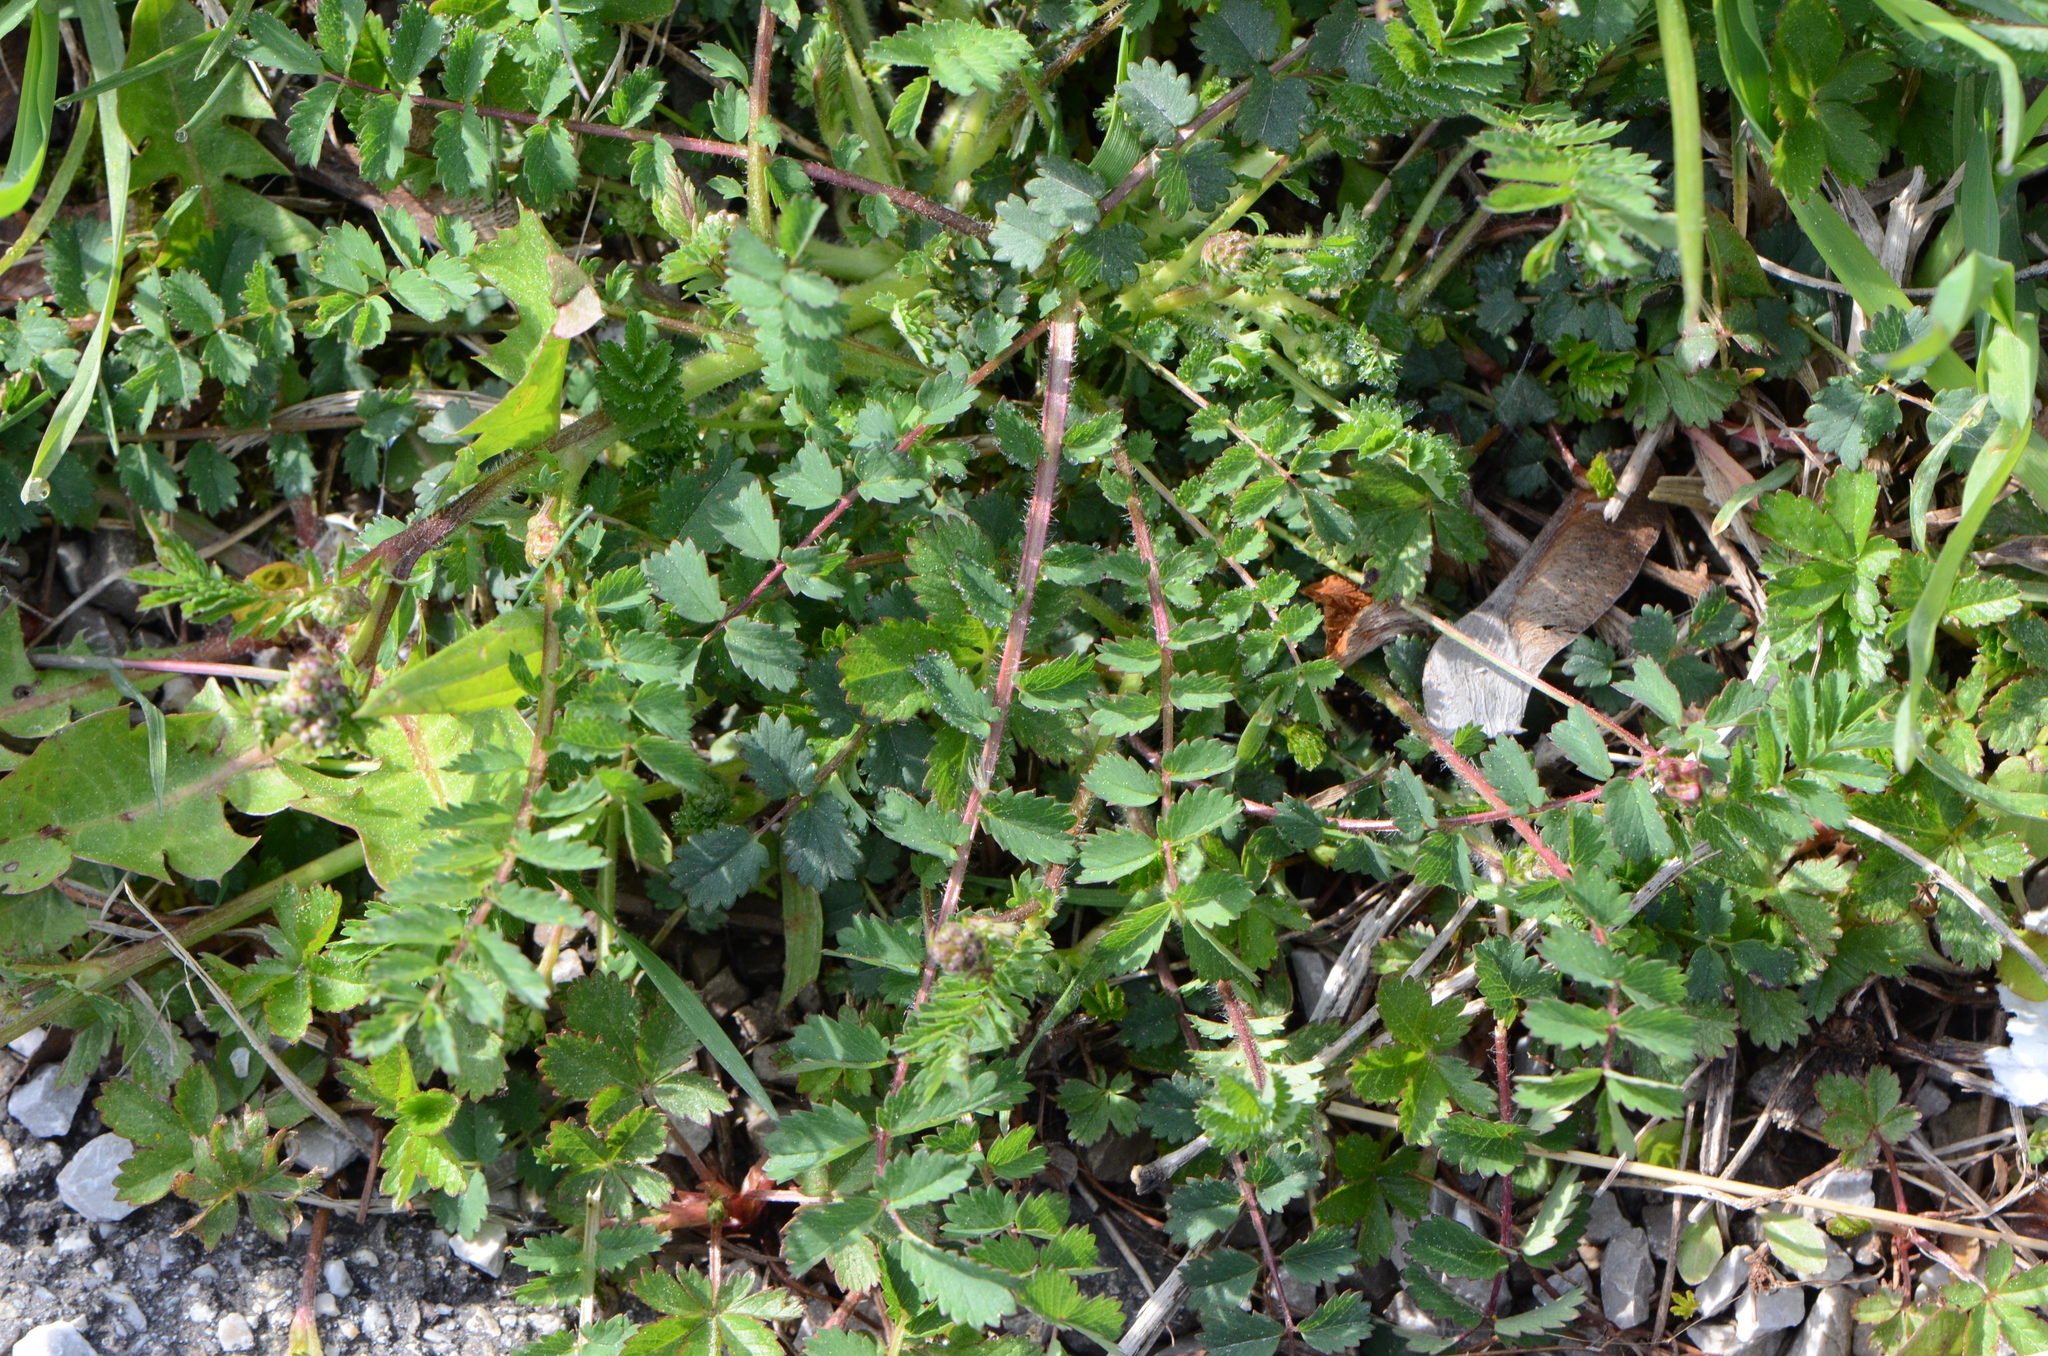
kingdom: Plantae
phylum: Tracheophyta
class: Magnoliopsida
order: Rosales
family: Rosaceae
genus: Poterium
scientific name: Poterium sanguisorba
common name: Salad burnet
